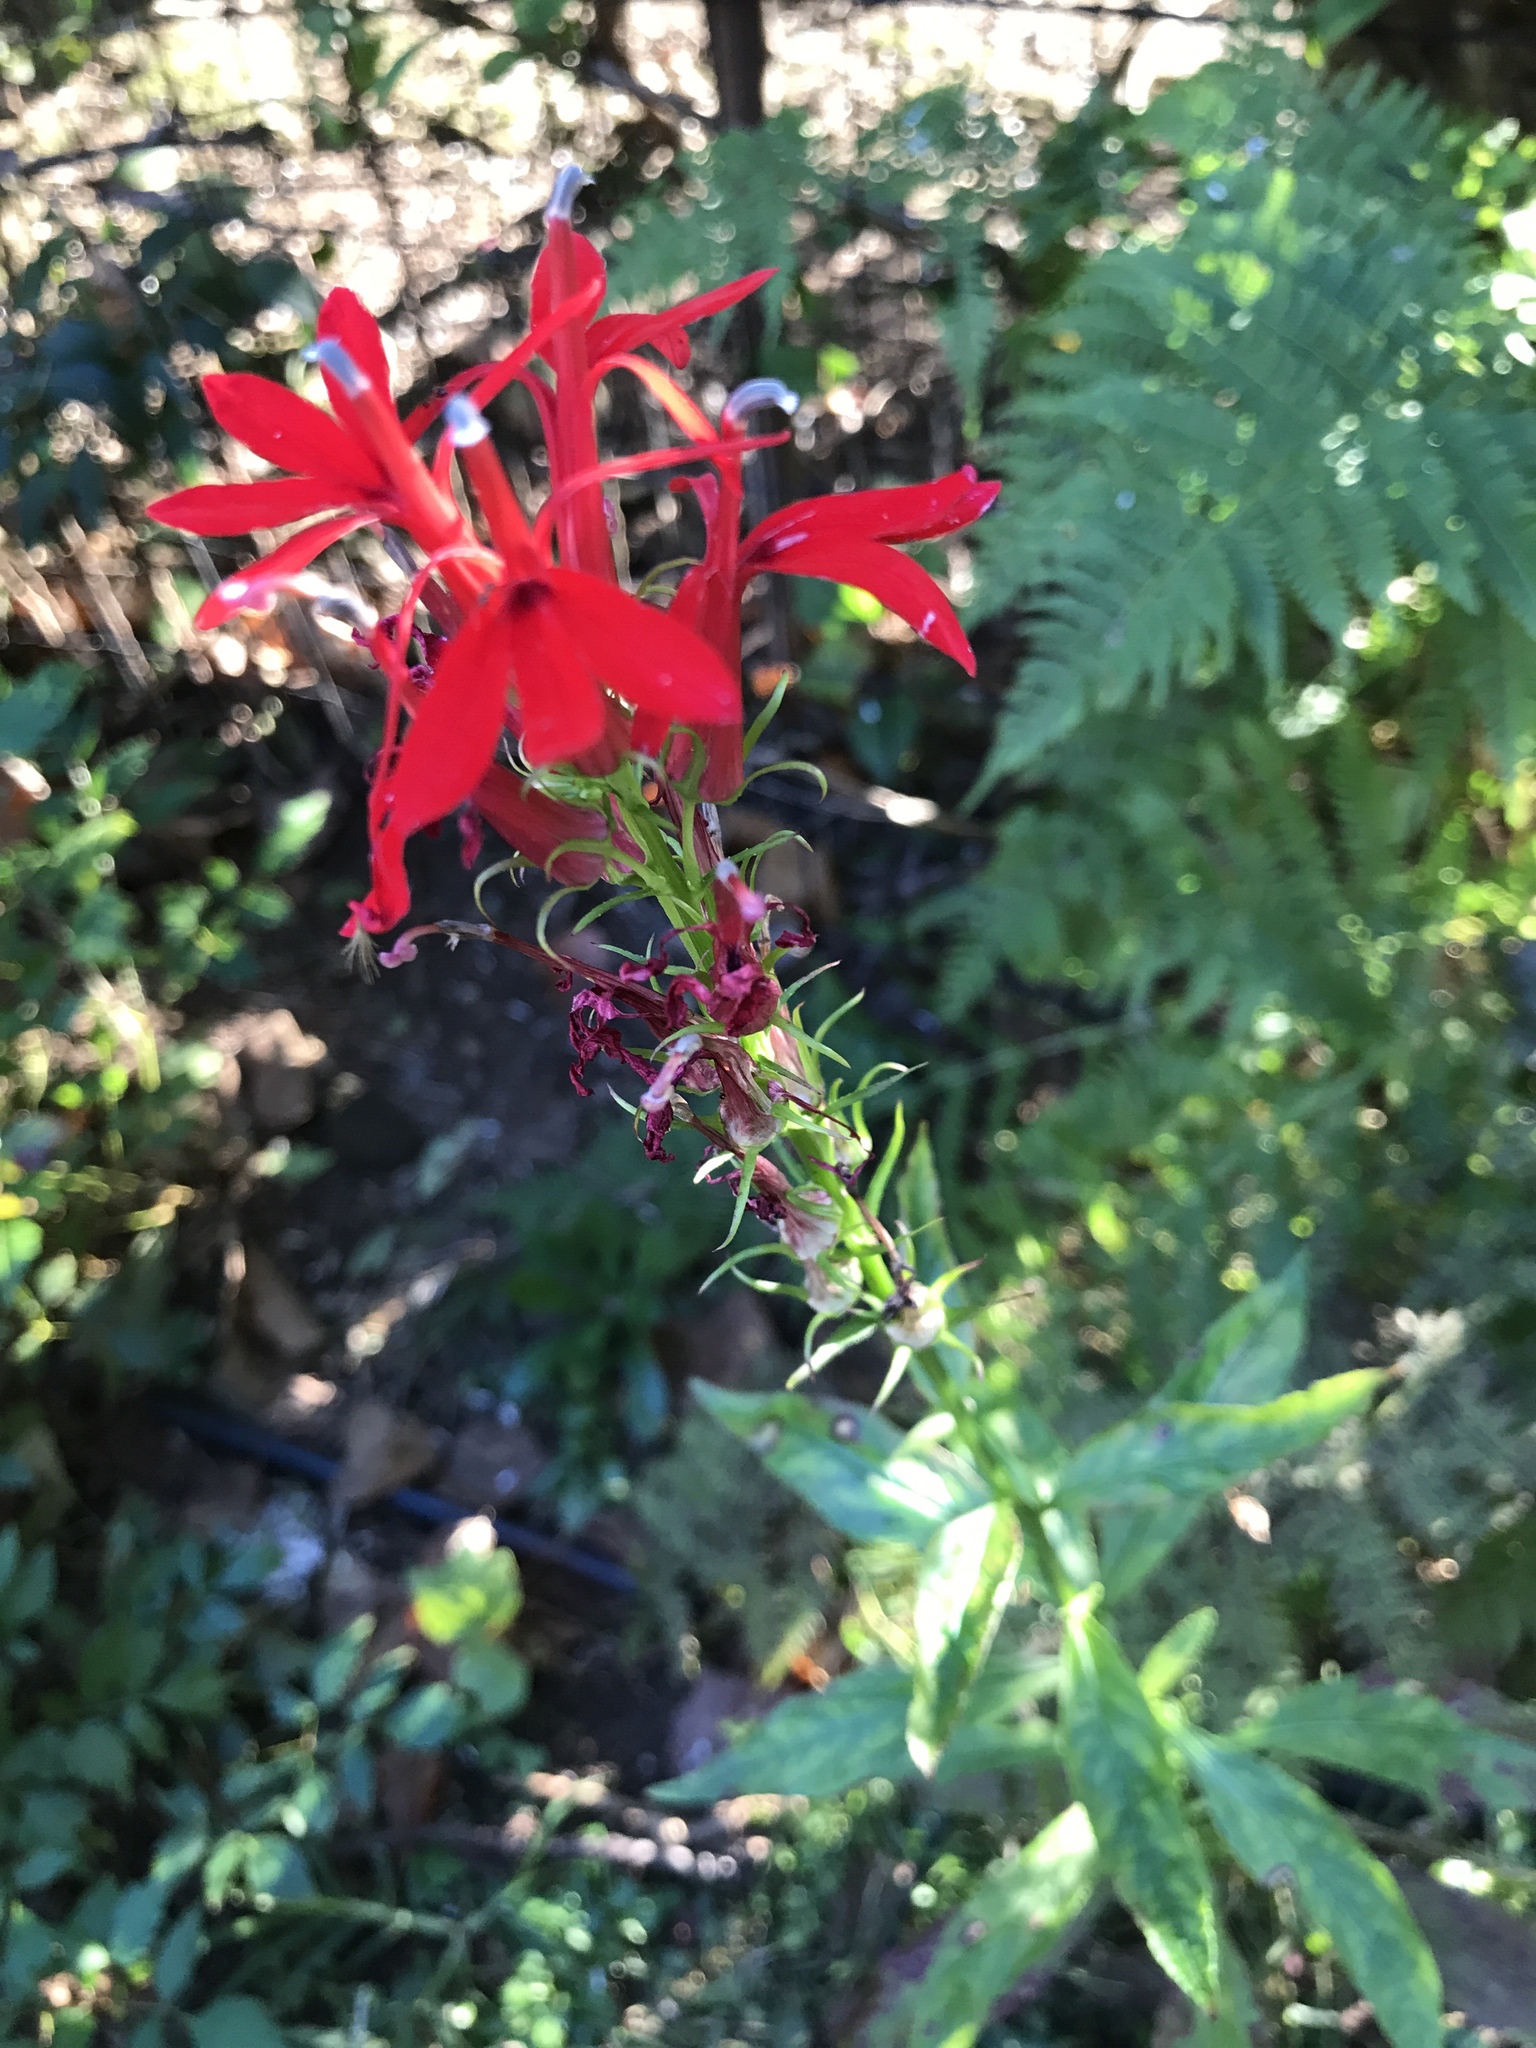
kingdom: Plantae
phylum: Tracheophyta
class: Magnoliopsida
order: Asterales
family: Campanulaceae
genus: Lobelia
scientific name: Lobelia cardinalis
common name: Cardinal flower
